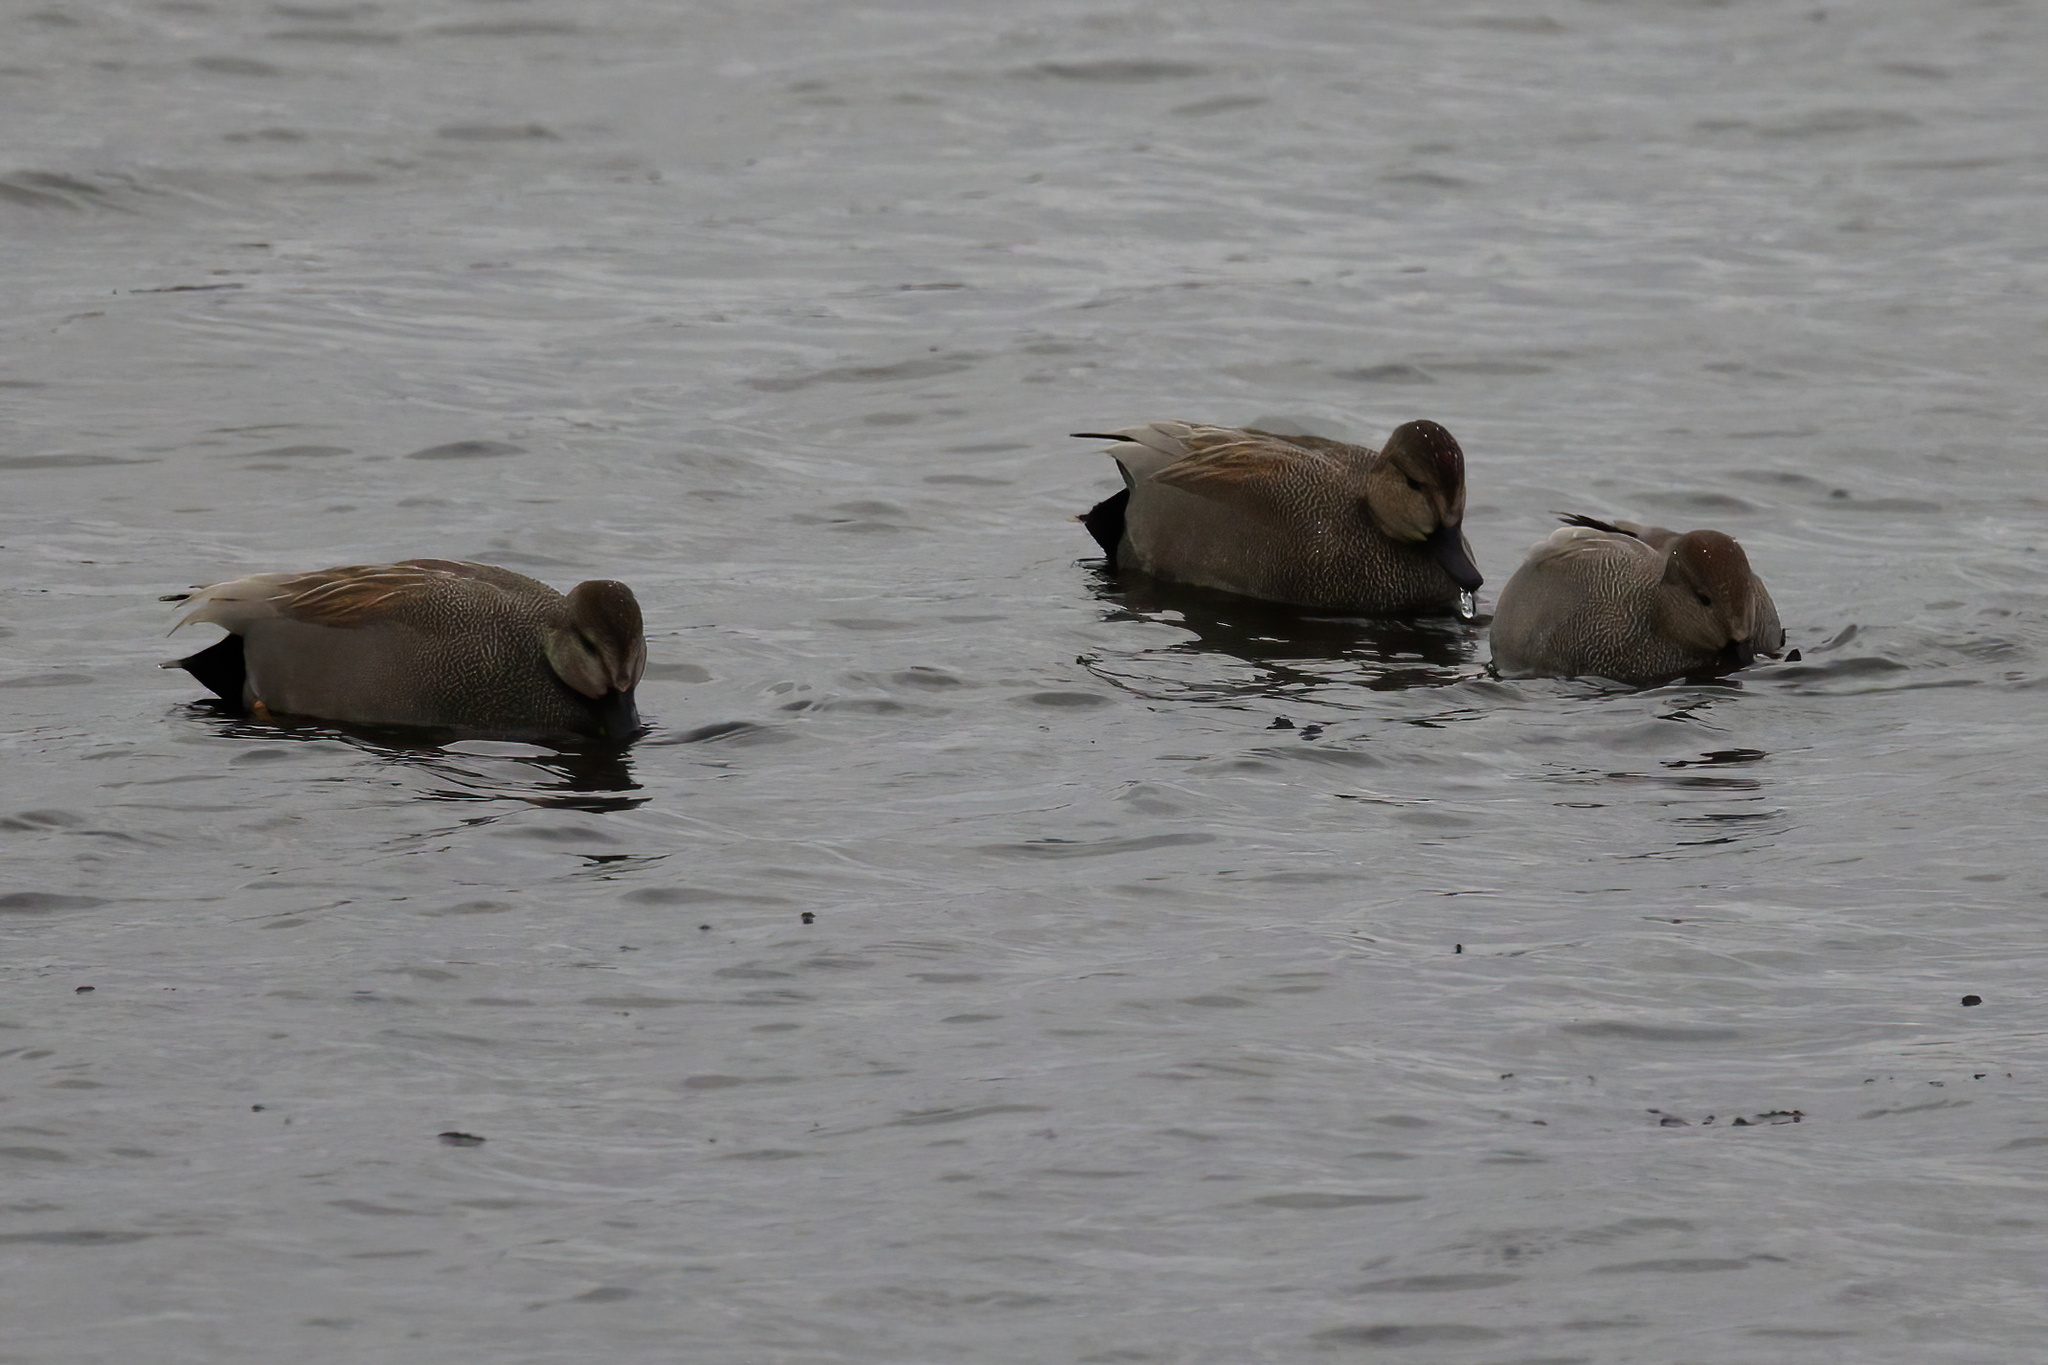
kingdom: Animalia
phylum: Chordata
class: Aves
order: Anseriformes
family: Anatidae
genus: Mareca
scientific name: Mareca strepera
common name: Gadwall
